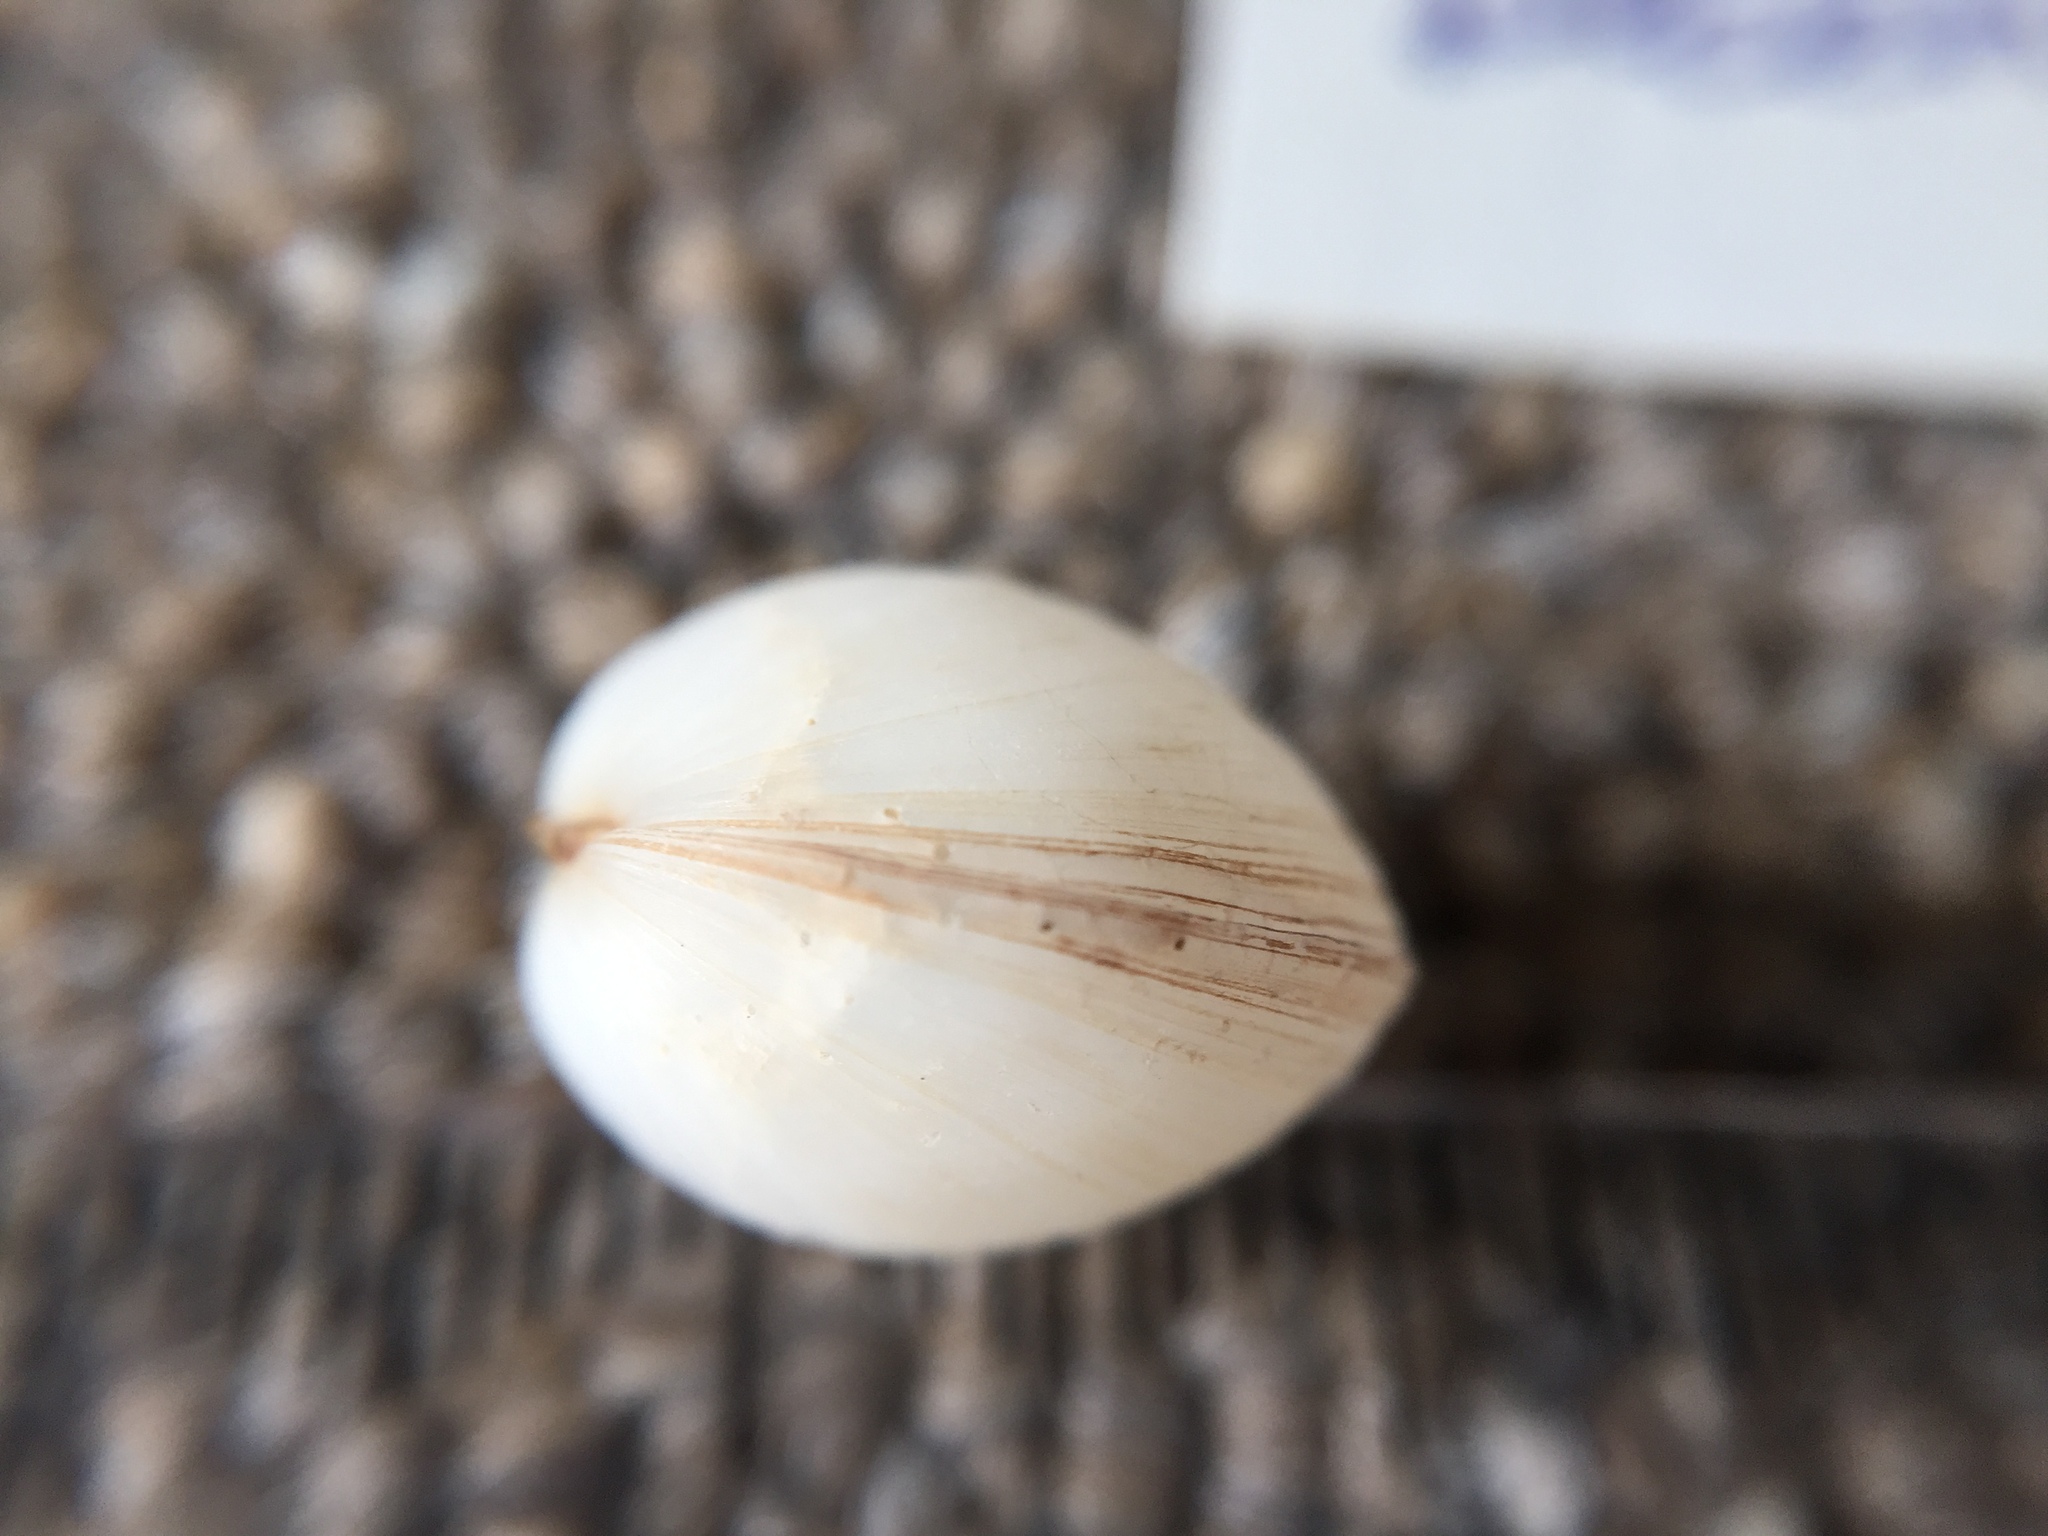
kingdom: Animalia
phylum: Mollusca
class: Bivalvia
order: Venerida
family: Ungulinidae
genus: Zemysina
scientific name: Zemysina striatula
